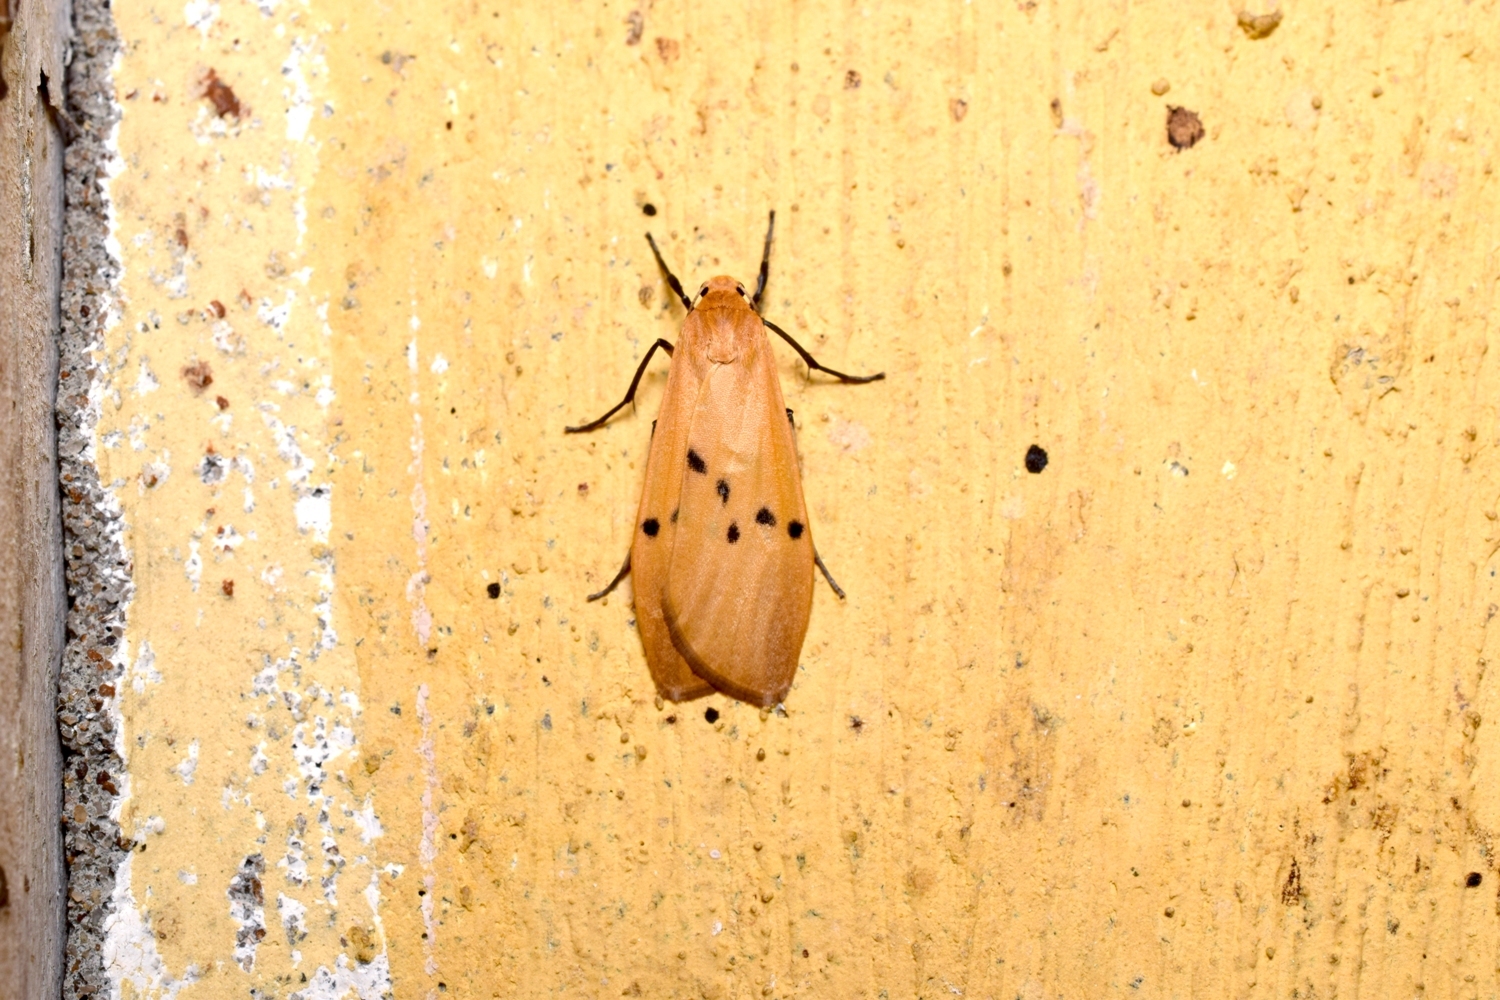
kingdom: Animalia
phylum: Arthropoda
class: Insecta
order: Lepidoptera
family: Erebidae
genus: Macohasa
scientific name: Macohasa orientalis
